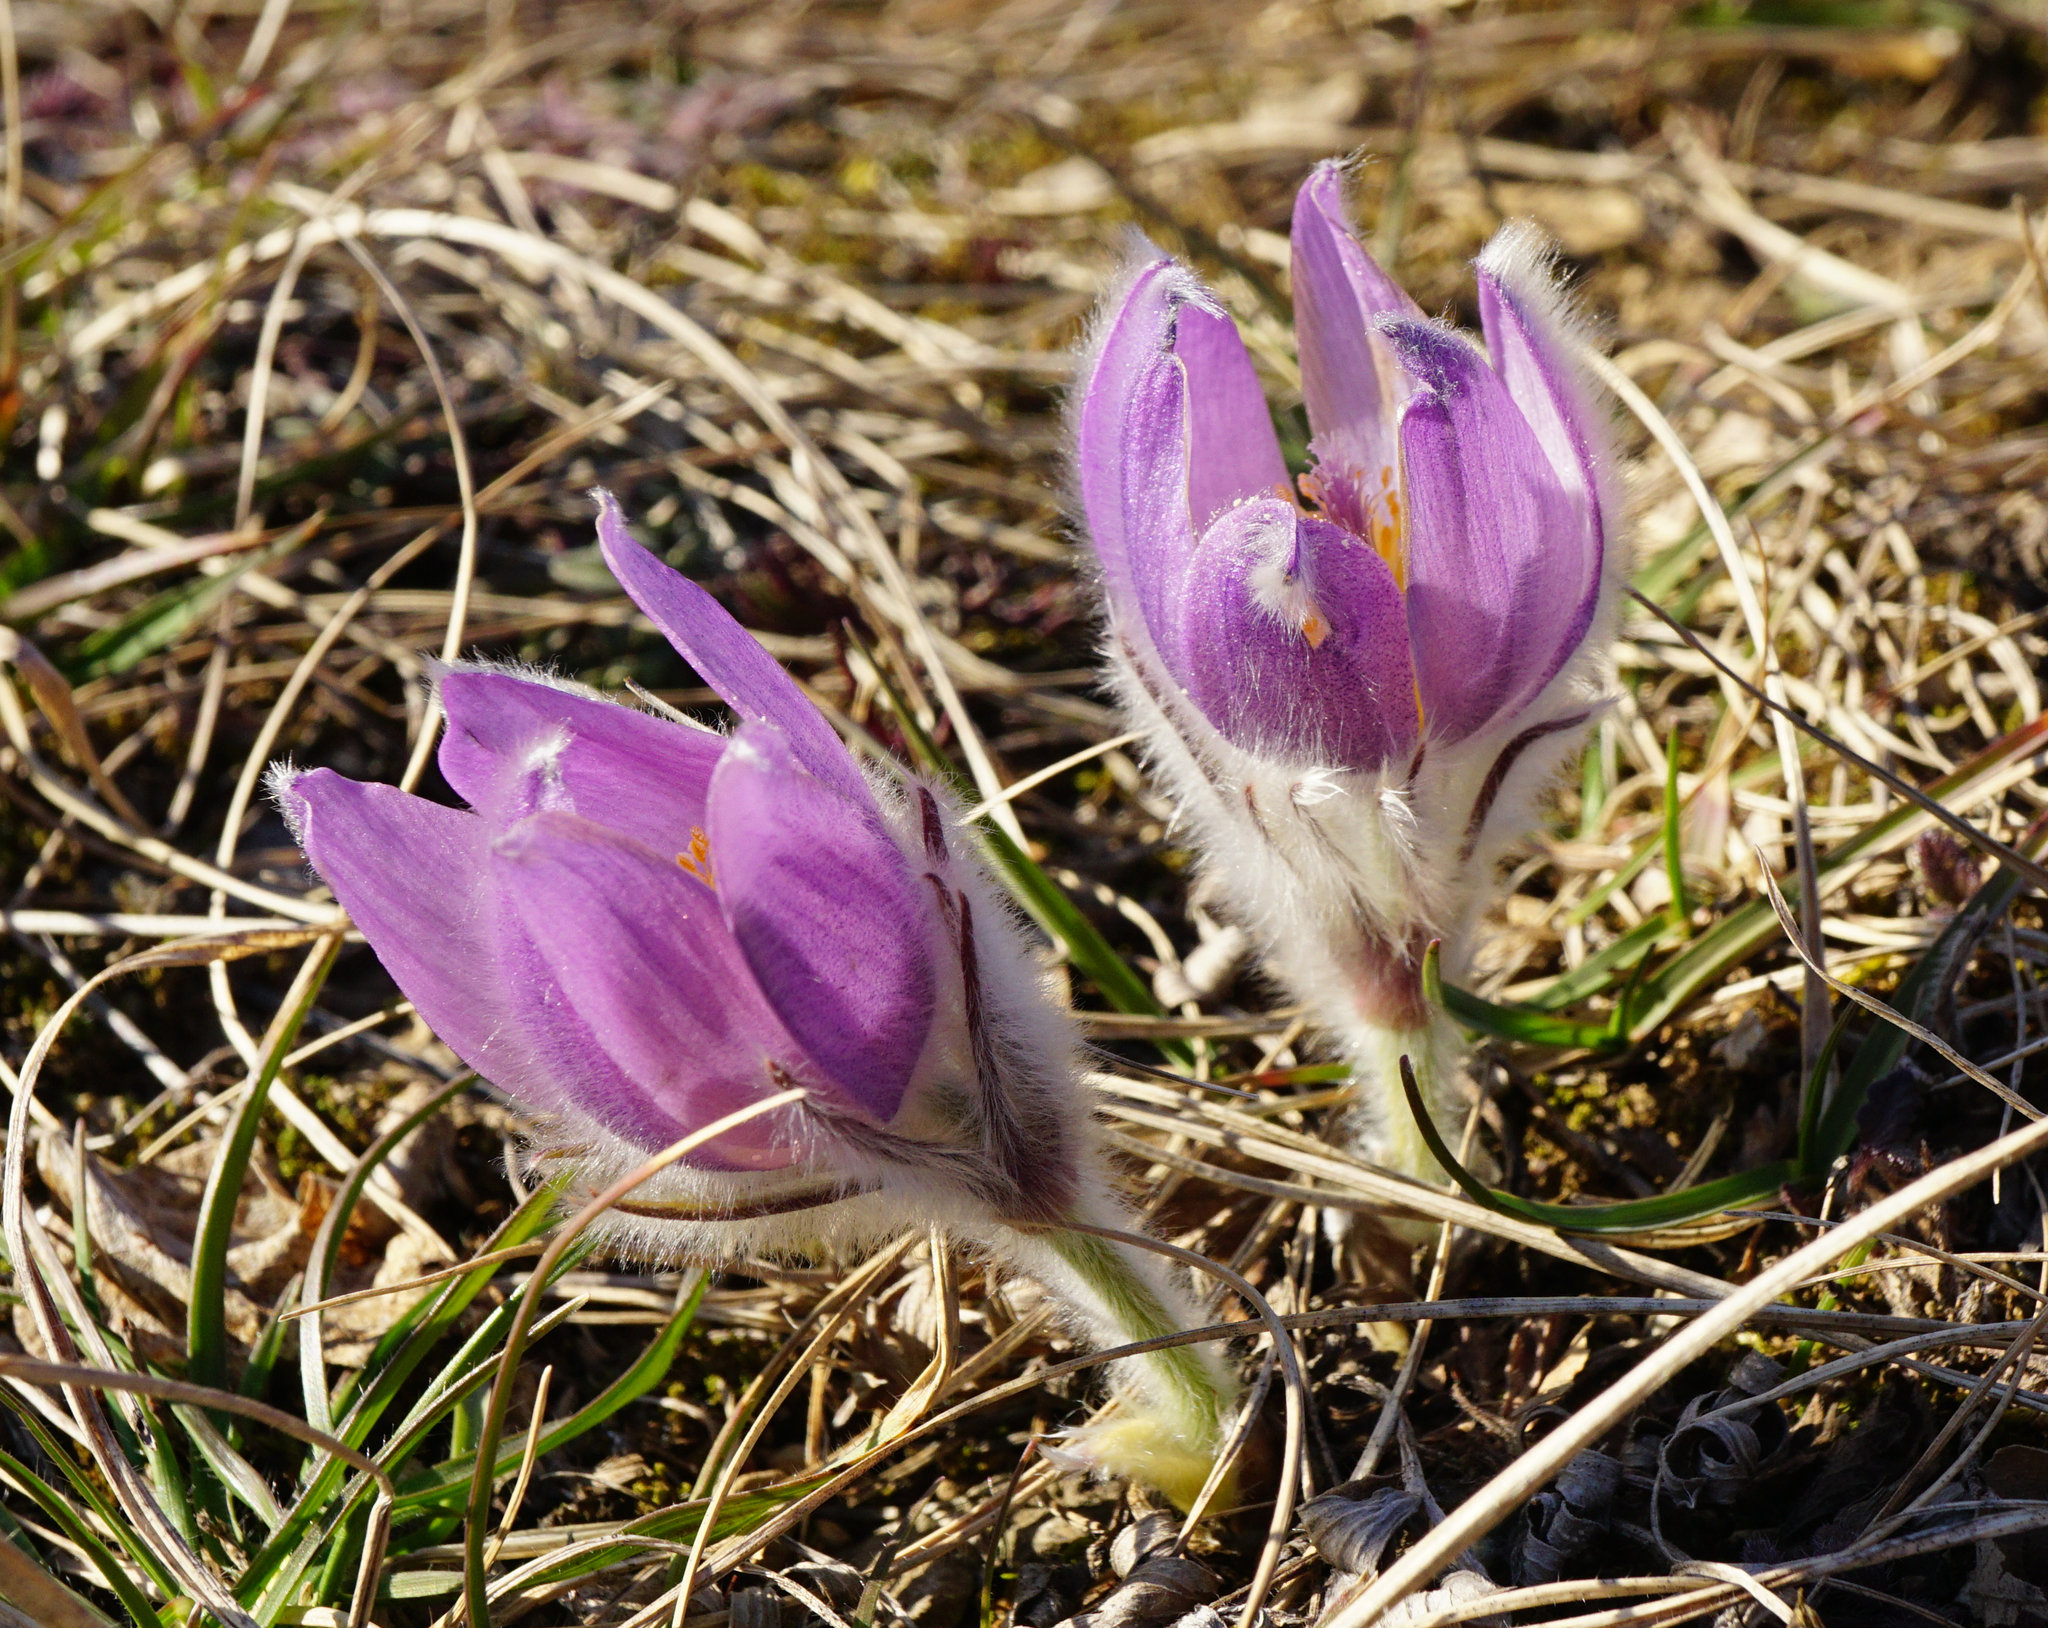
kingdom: Plantae
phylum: Tracheophyta
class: Magnoliopsida
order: Ranunculales
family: Ranunculaceae
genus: Pulsatilla
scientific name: Pulsatilla grandis
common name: Greater pasque flower
